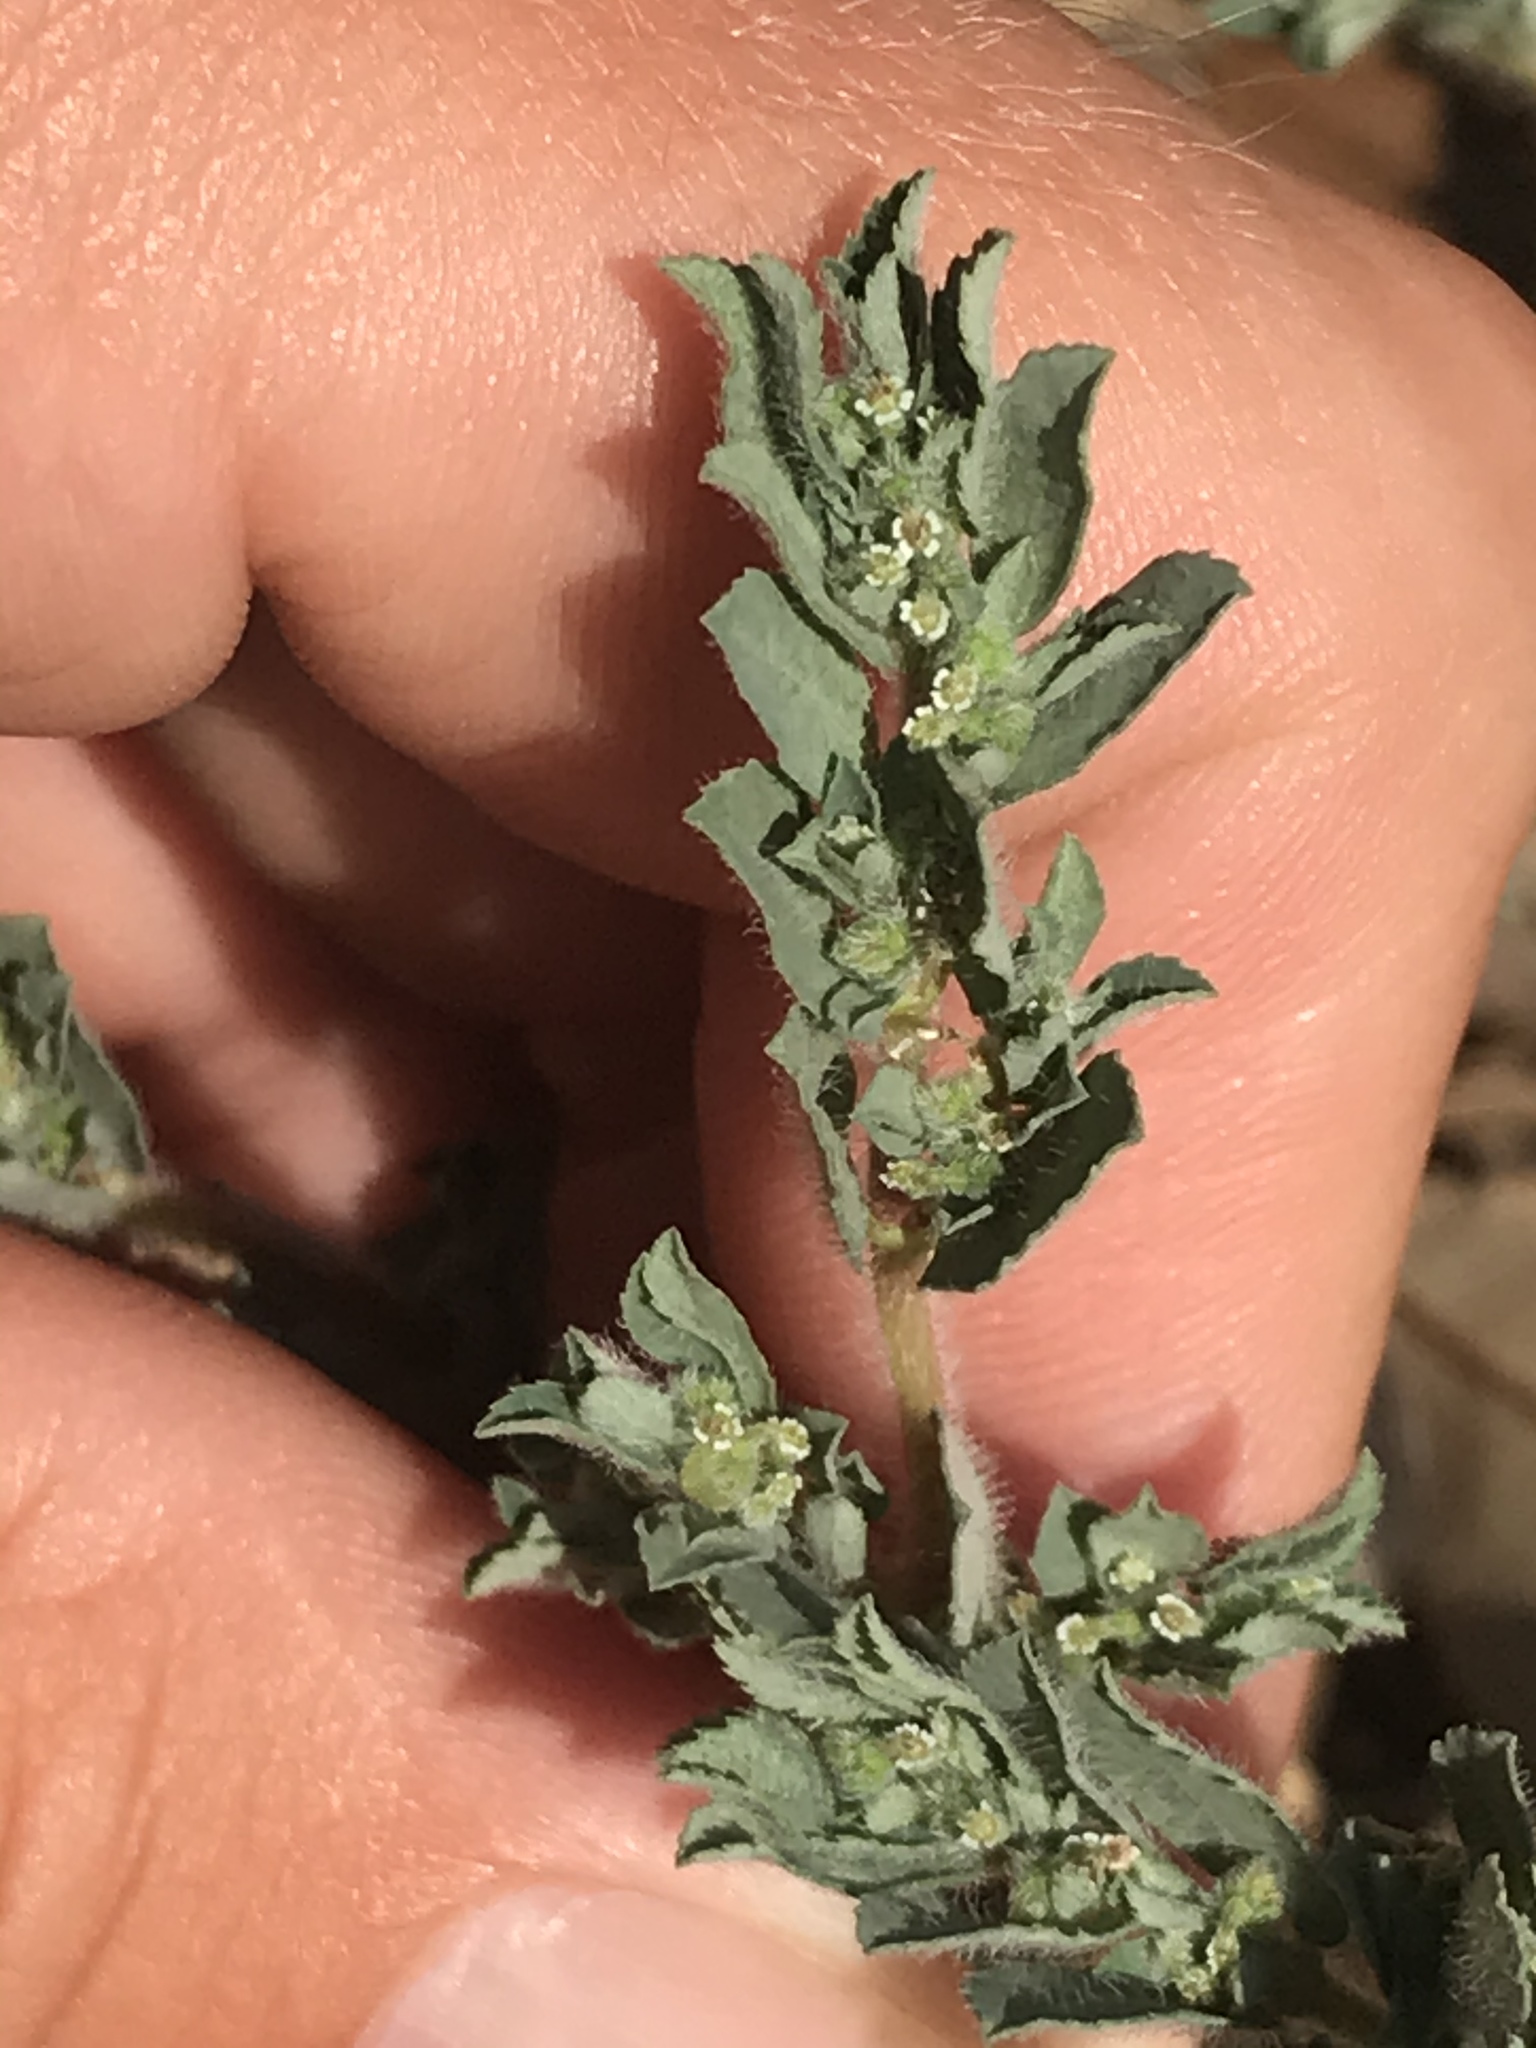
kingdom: Plantae
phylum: Tracheophyta
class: Magnoliopsida
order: Malpighiales
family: Euphorbiaceae
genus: Euphorbia
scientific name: Euphorbia stictospora
